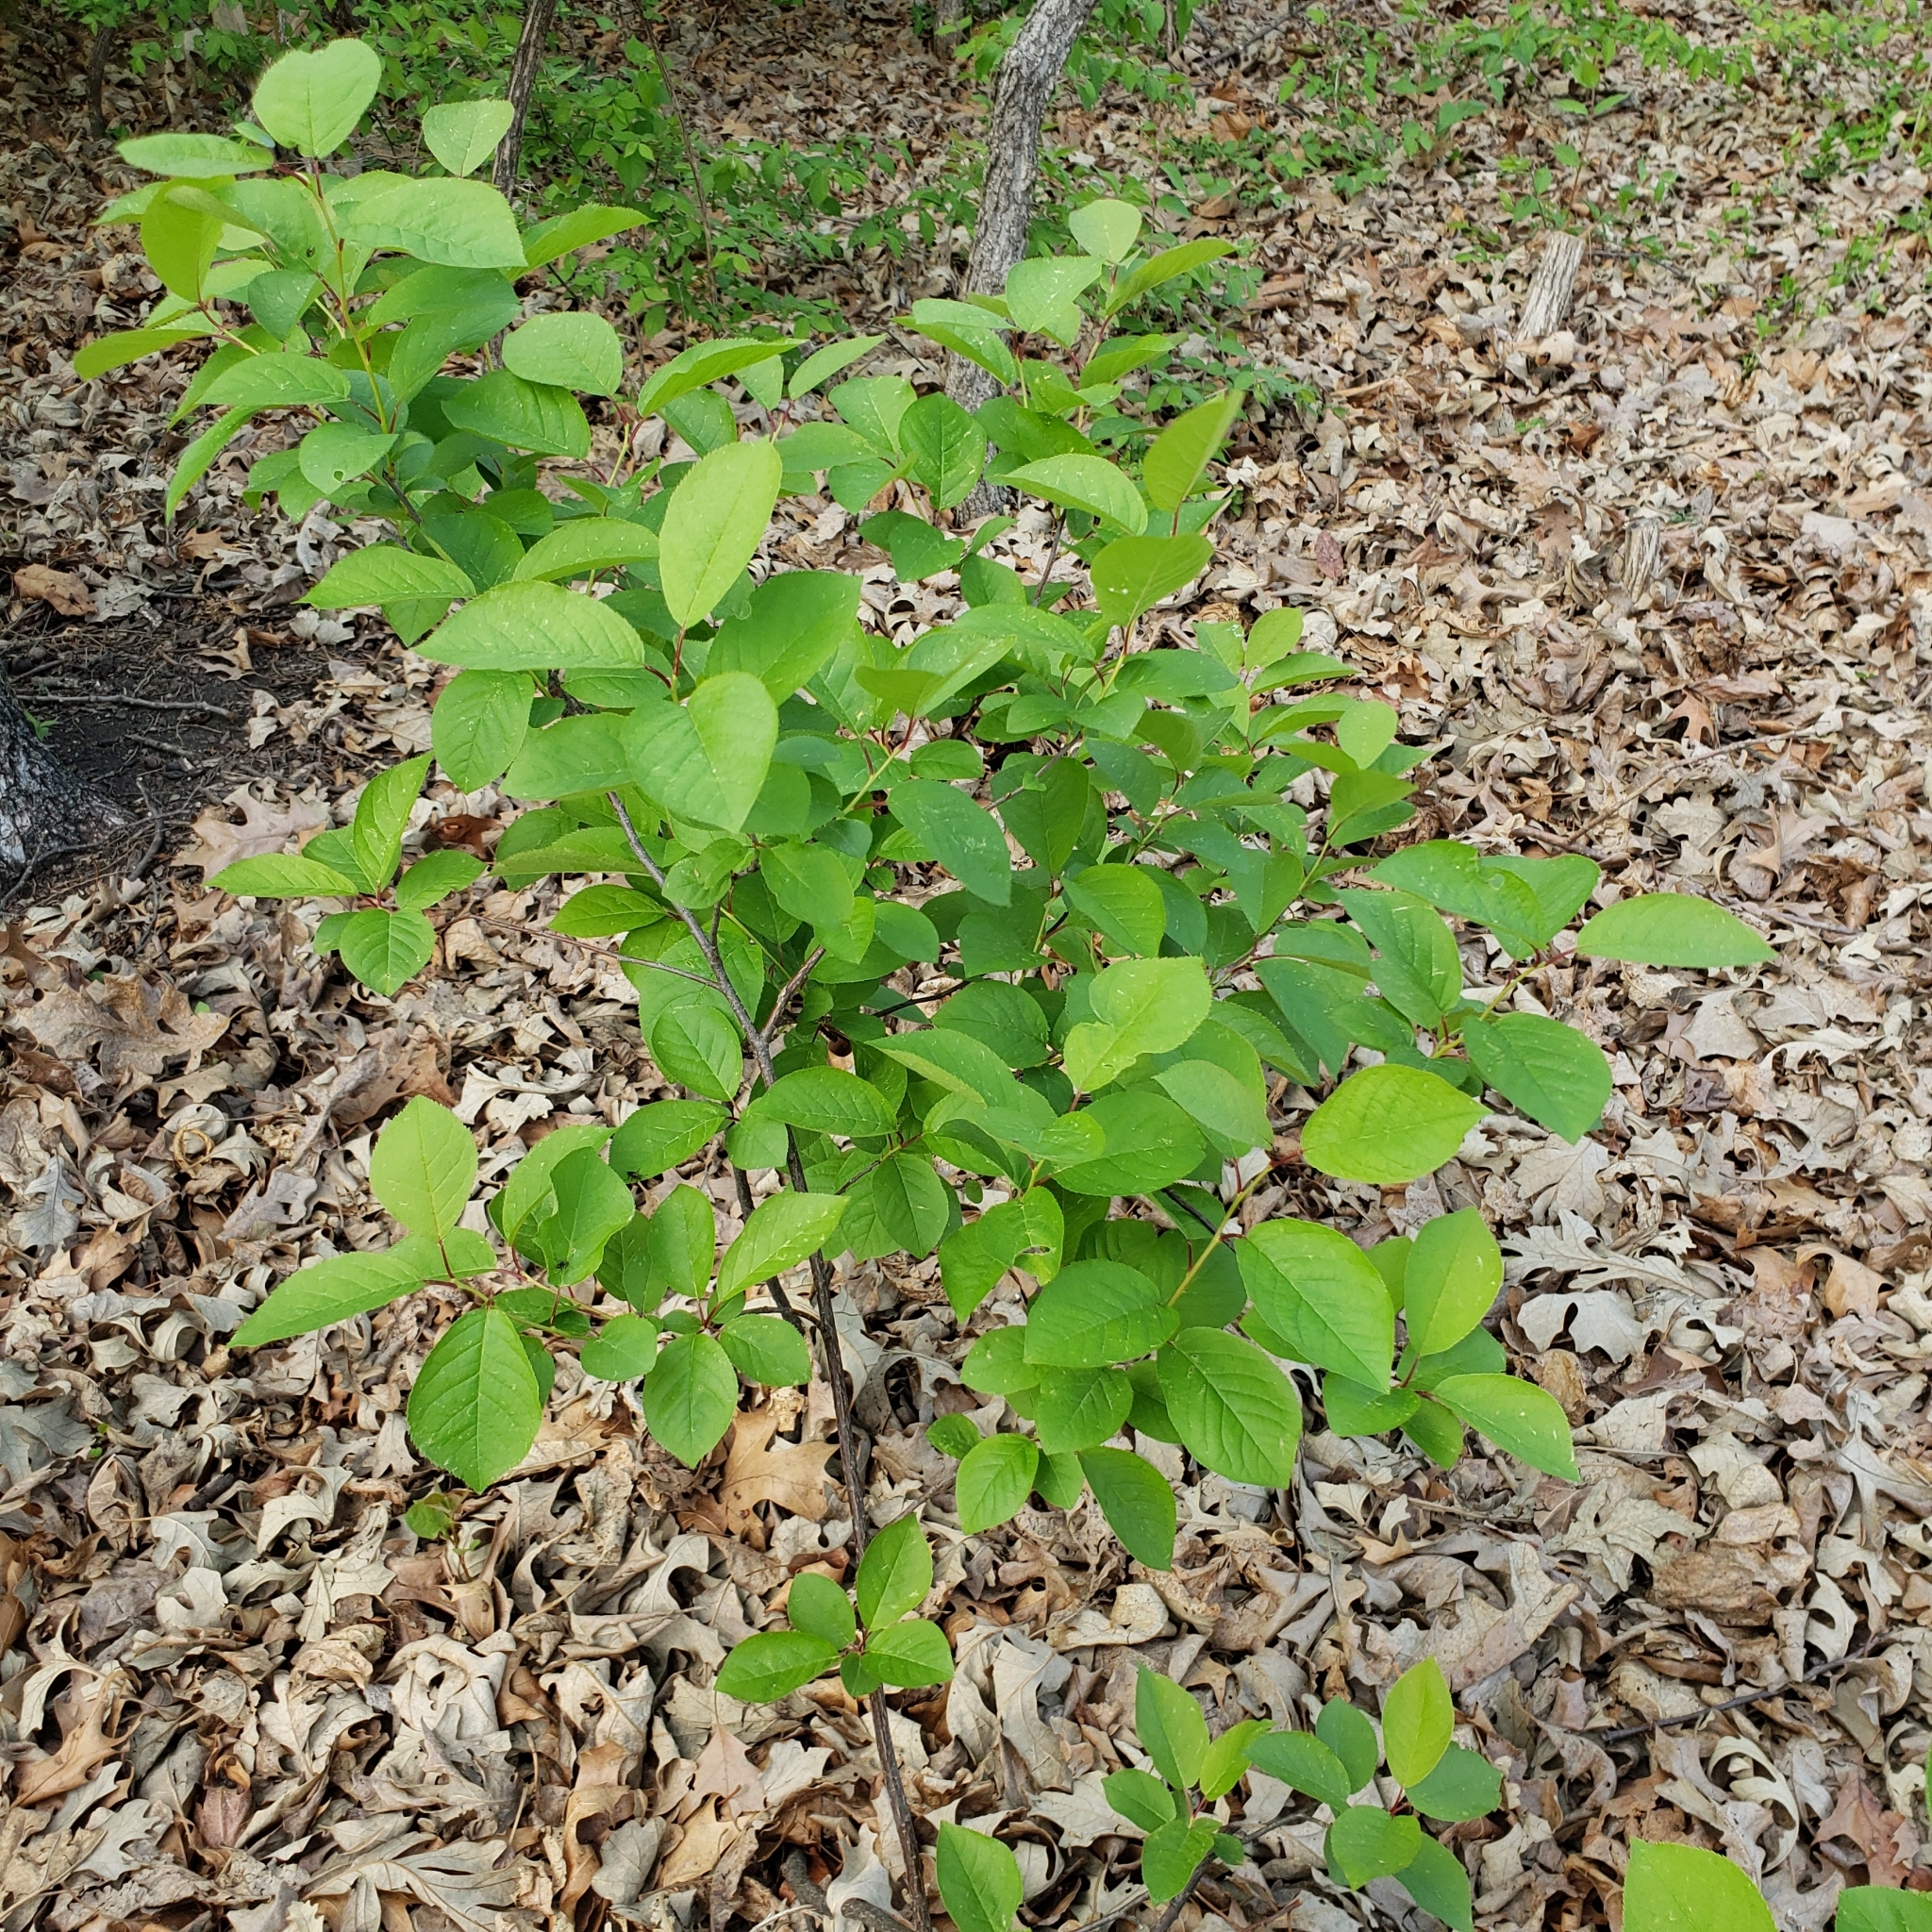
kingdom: Plantae
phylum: Tracheophyta
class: Magnoliopsida
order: Rosales
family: Rosaceae
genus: Prunus
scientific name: Prunus virginiana
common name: Chokecherry
